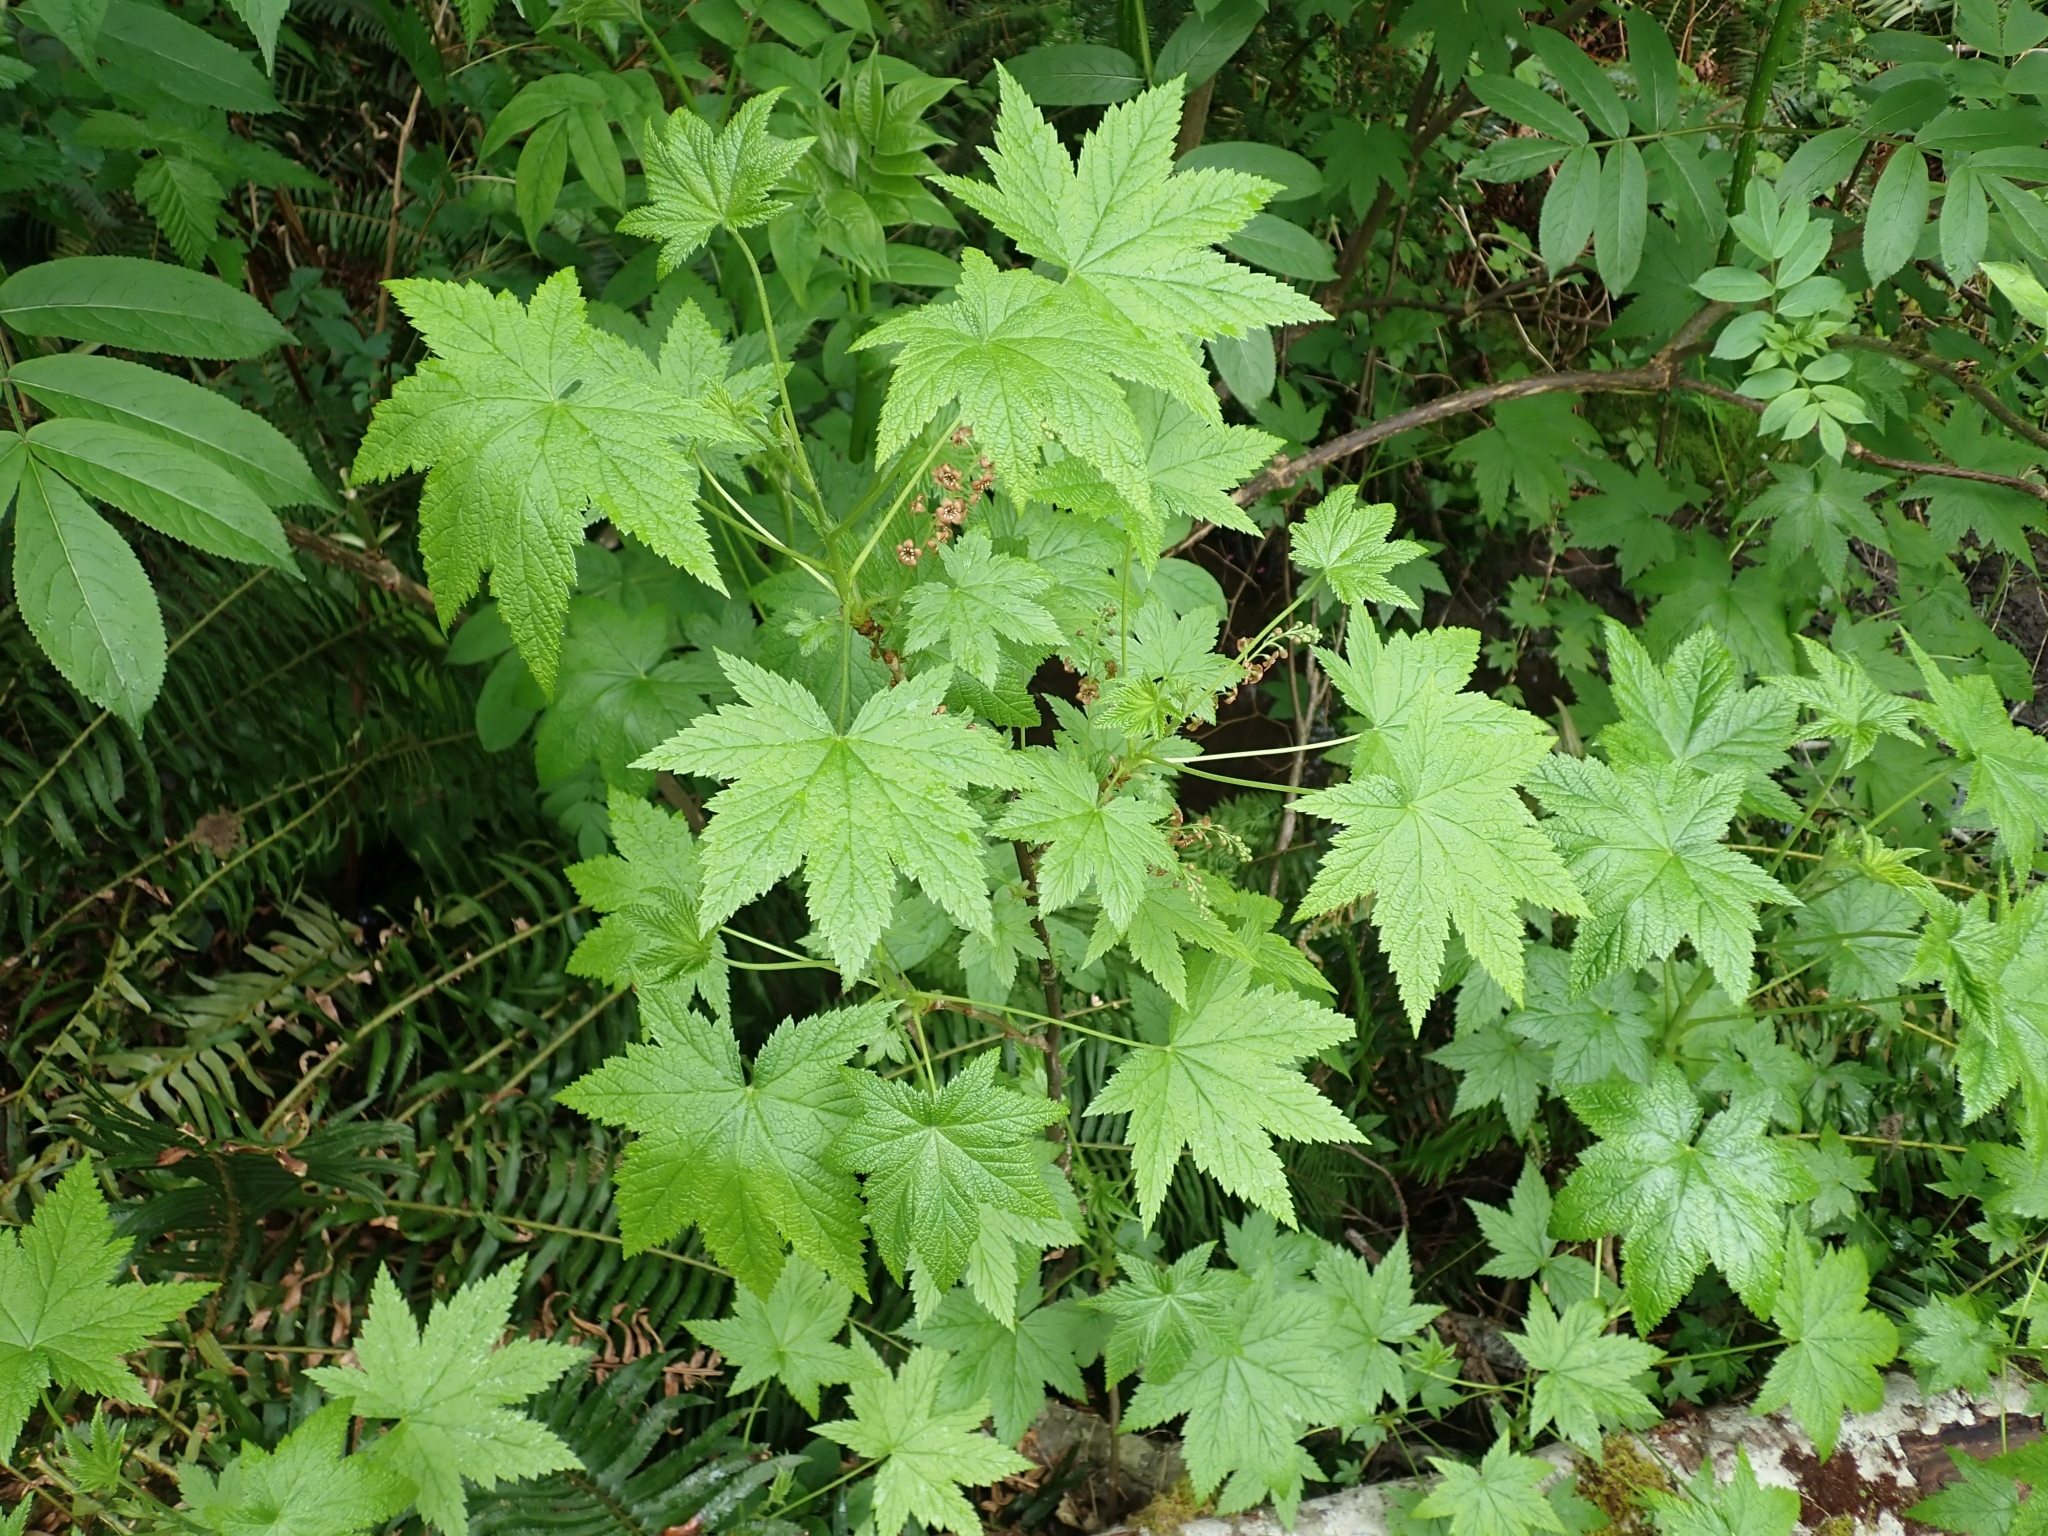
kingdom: Plantae
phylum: Tracheophyta
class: Magnoliopsida
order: Saxifragales
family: Grossulariaceae
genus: Ribes
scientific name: Ribes bracteosum
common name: California black currant
